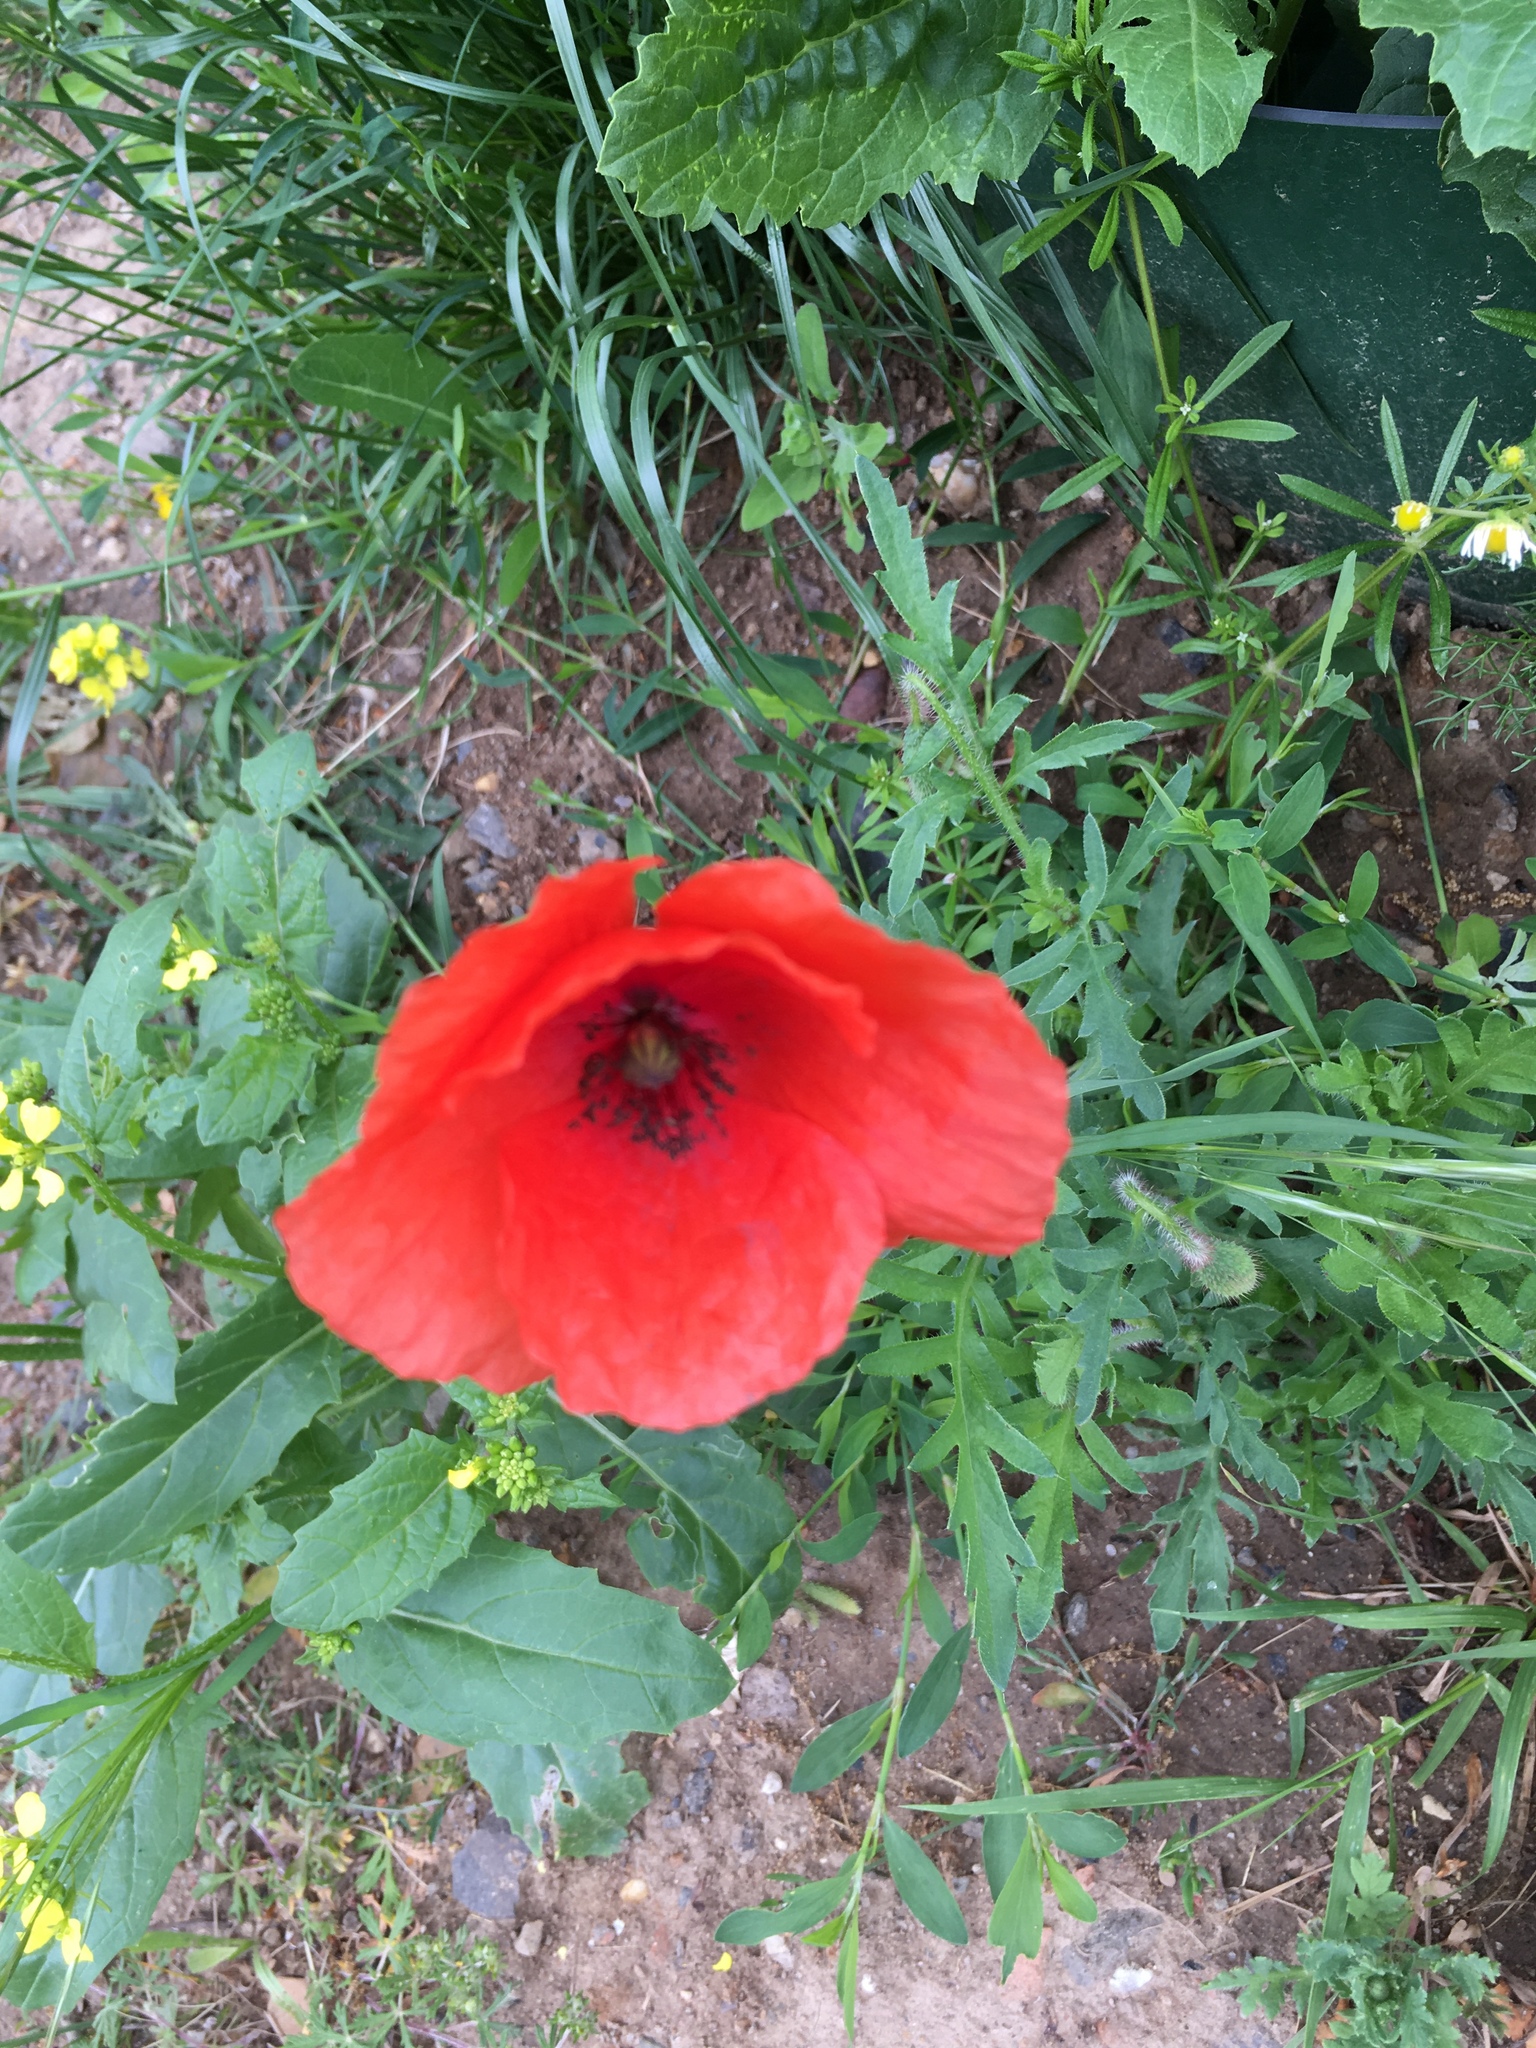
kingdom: Plantae
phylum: Tracheophyta
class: Magnoliopsida
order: Ranunculales
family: Papaveraceae
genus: Papaver
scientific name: Papaver rhoeas
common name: Corn poppy
